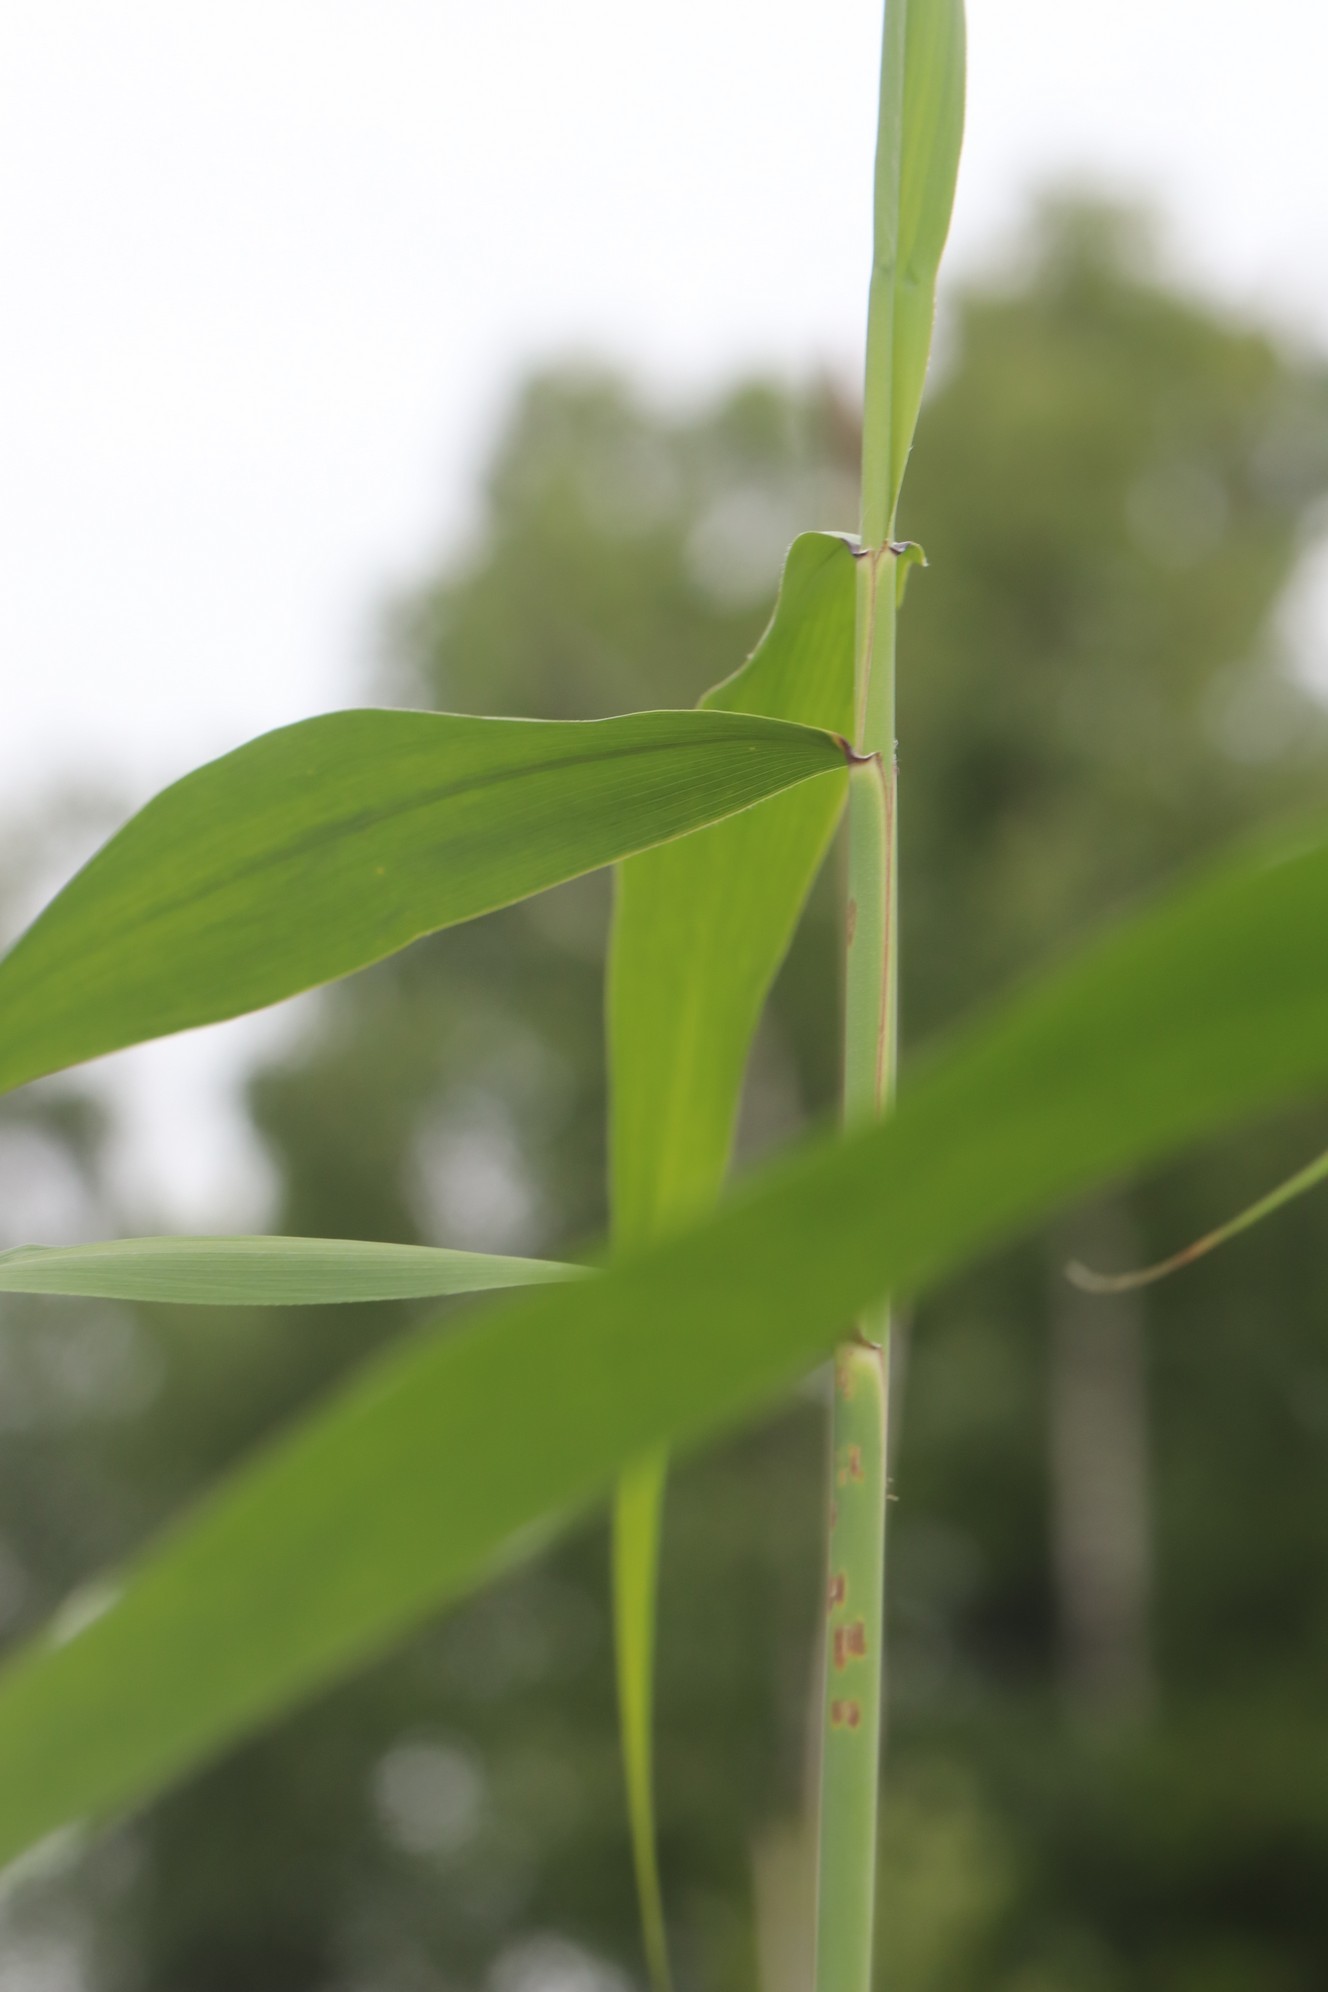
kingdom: Plantae
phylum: Tracheophyta
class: Liliopsida
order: Poales
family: Poaceae
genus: Phragmites
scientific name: Phragmites australis
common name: Common reed
